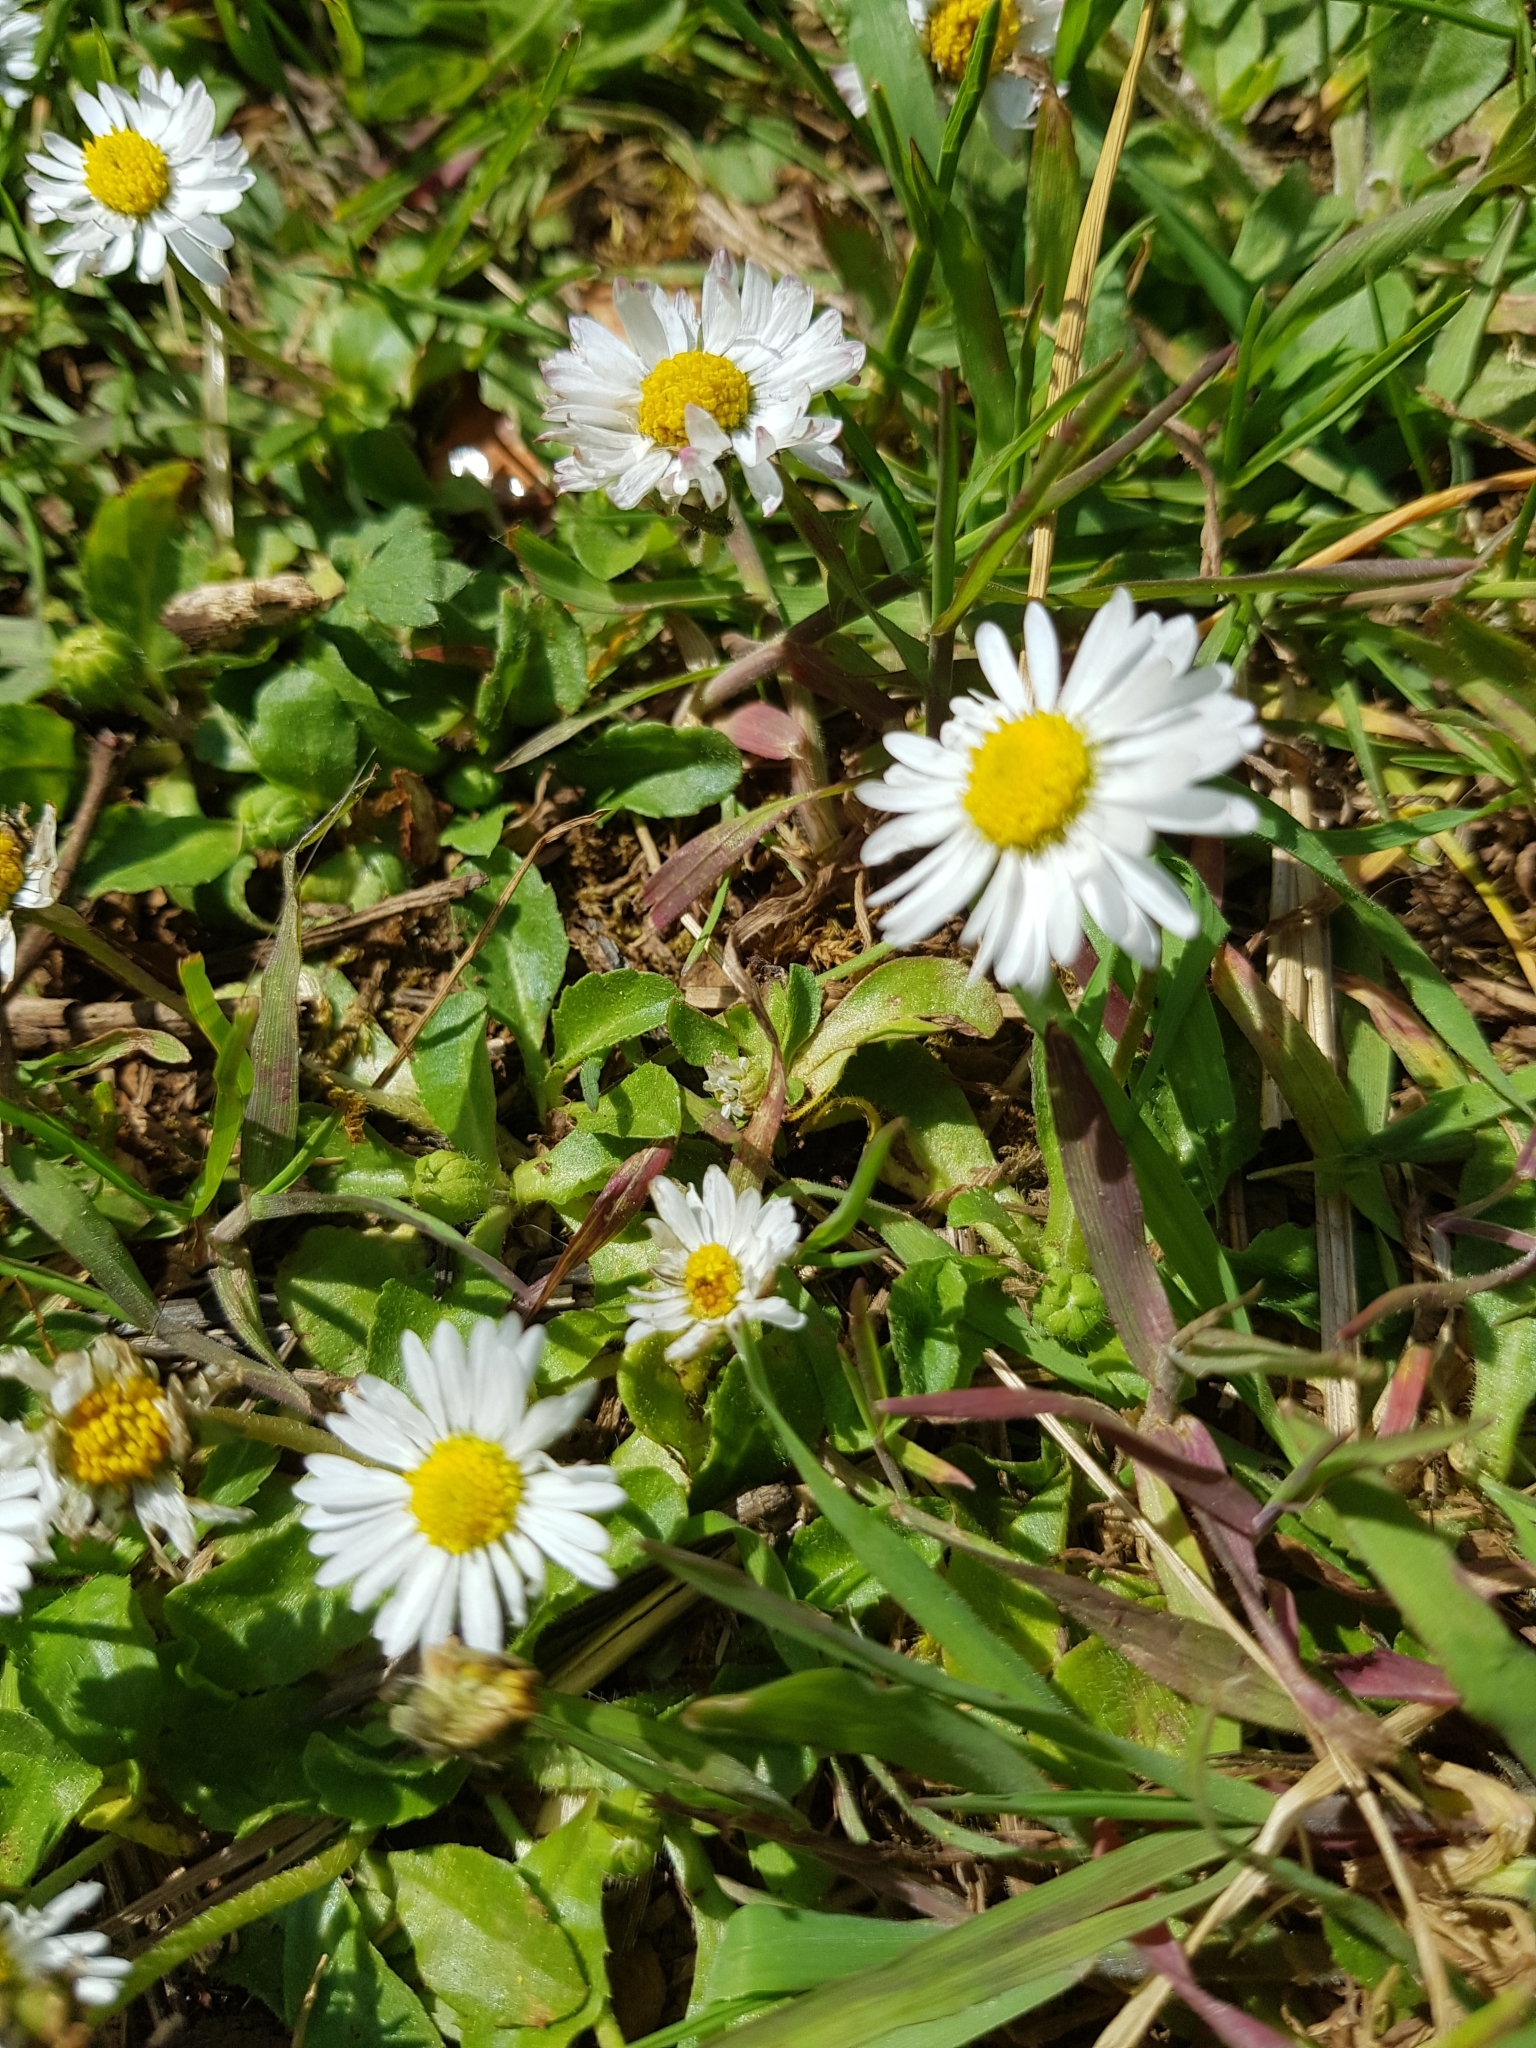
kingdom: Plantae
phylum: Tracheophyta
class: Magnoliopsida
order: Asterales
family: Asteraceae
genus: Bellis
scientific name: Bellis perennis
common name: Lawndaisy
